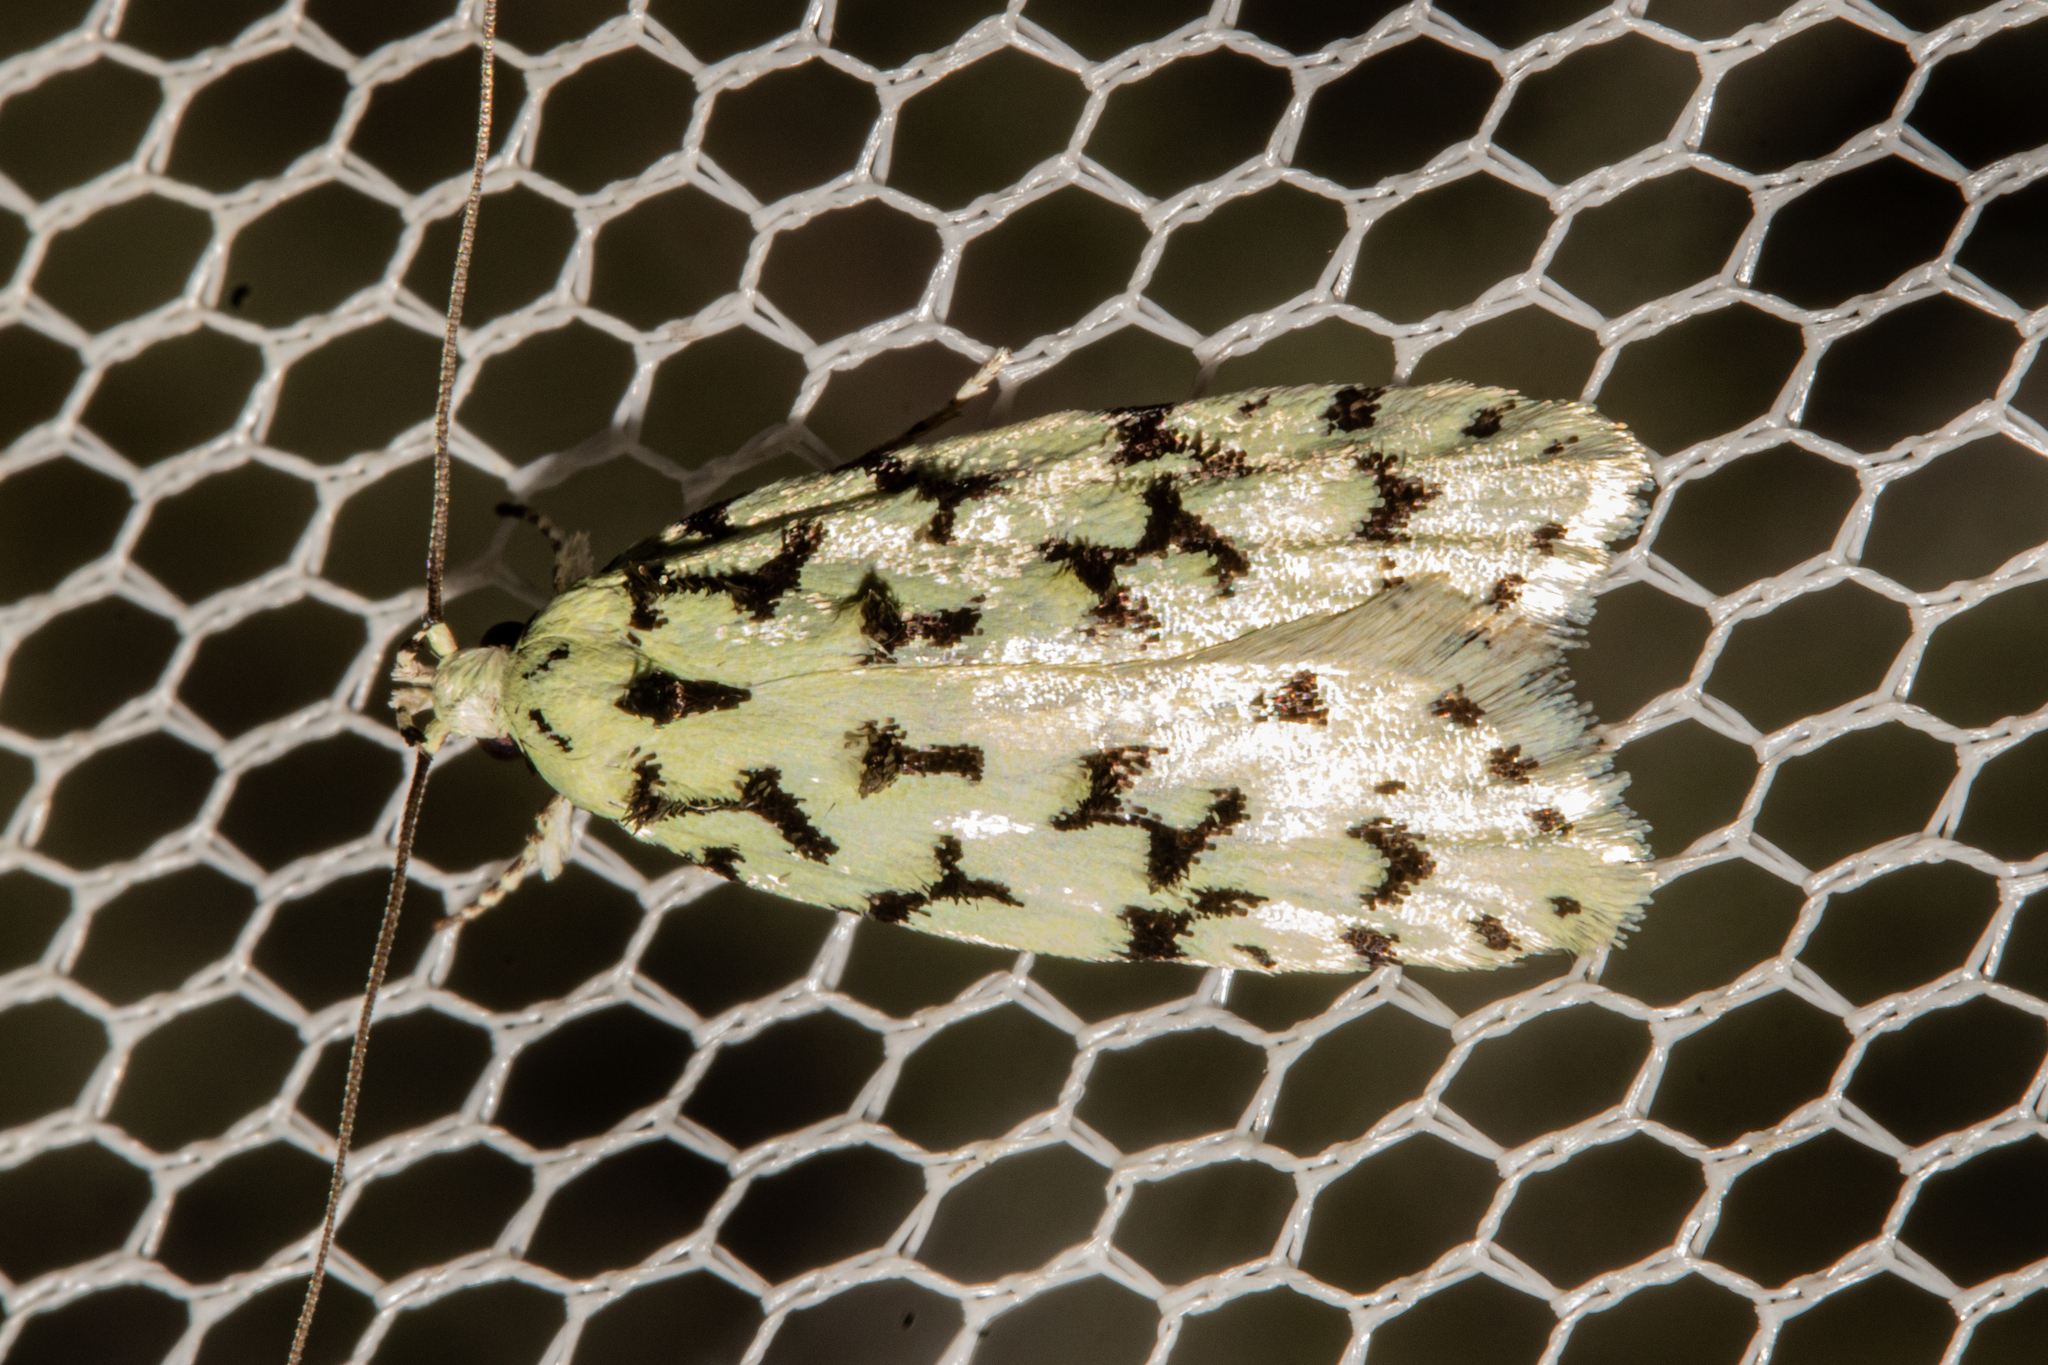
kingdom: Animalia
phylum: Arthropoda
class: Insecta
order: Lepidoptera
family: Oecophoridae
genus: Izatha
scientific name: Izatha huttoni
